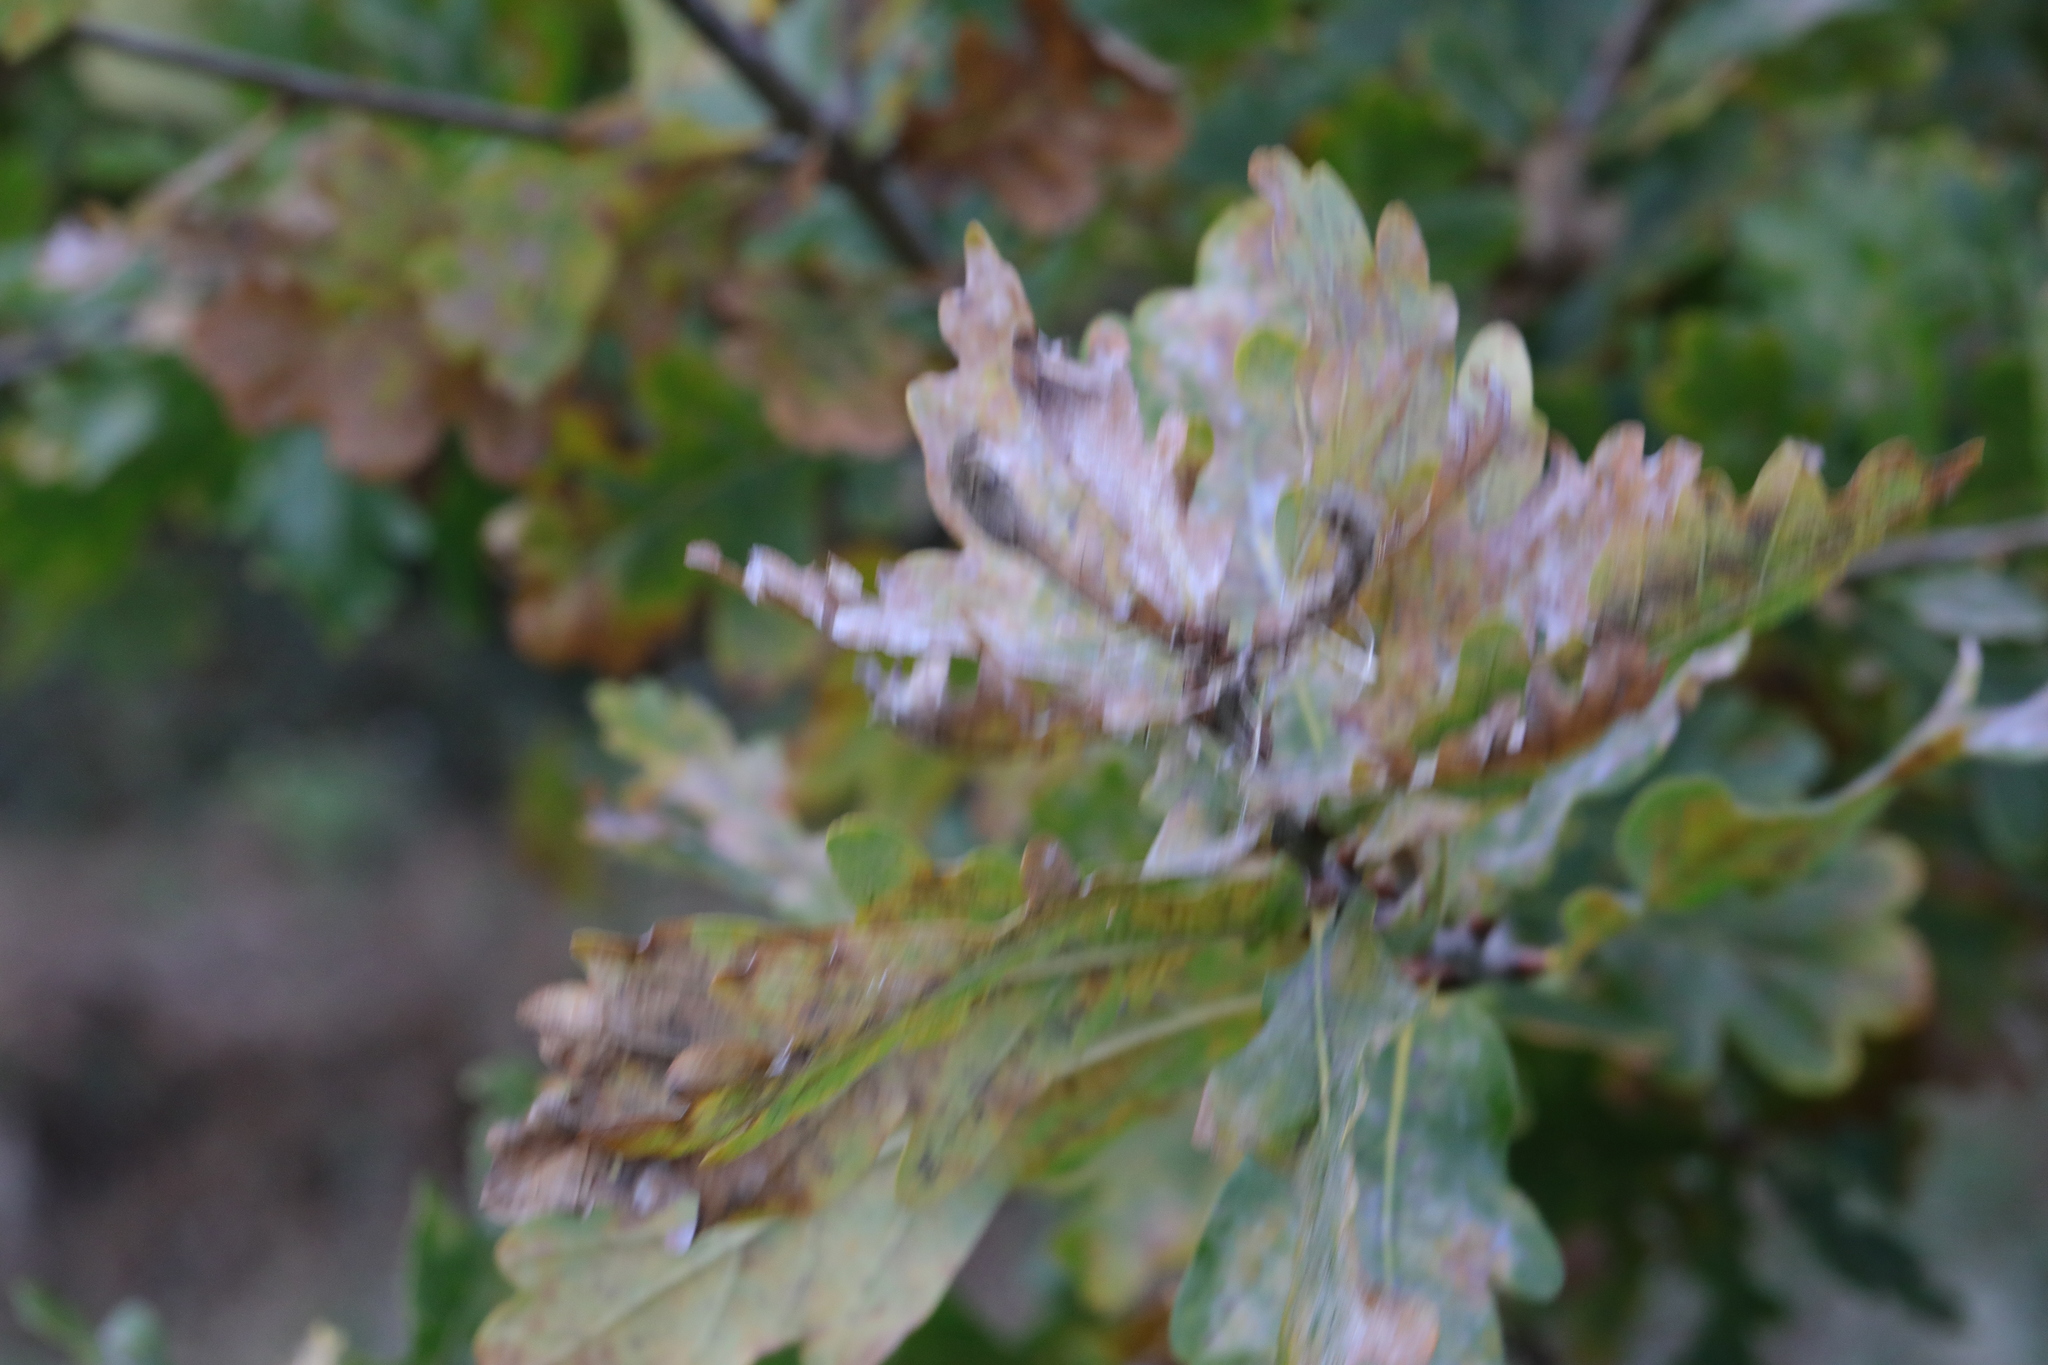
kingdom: Fungi
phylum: Ascomycota
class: Leotiomycetes
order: Helotiales
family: Erysiphaceae
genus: Erysiphe
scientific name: Erysiphe alphitoides
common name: Oak mildew
